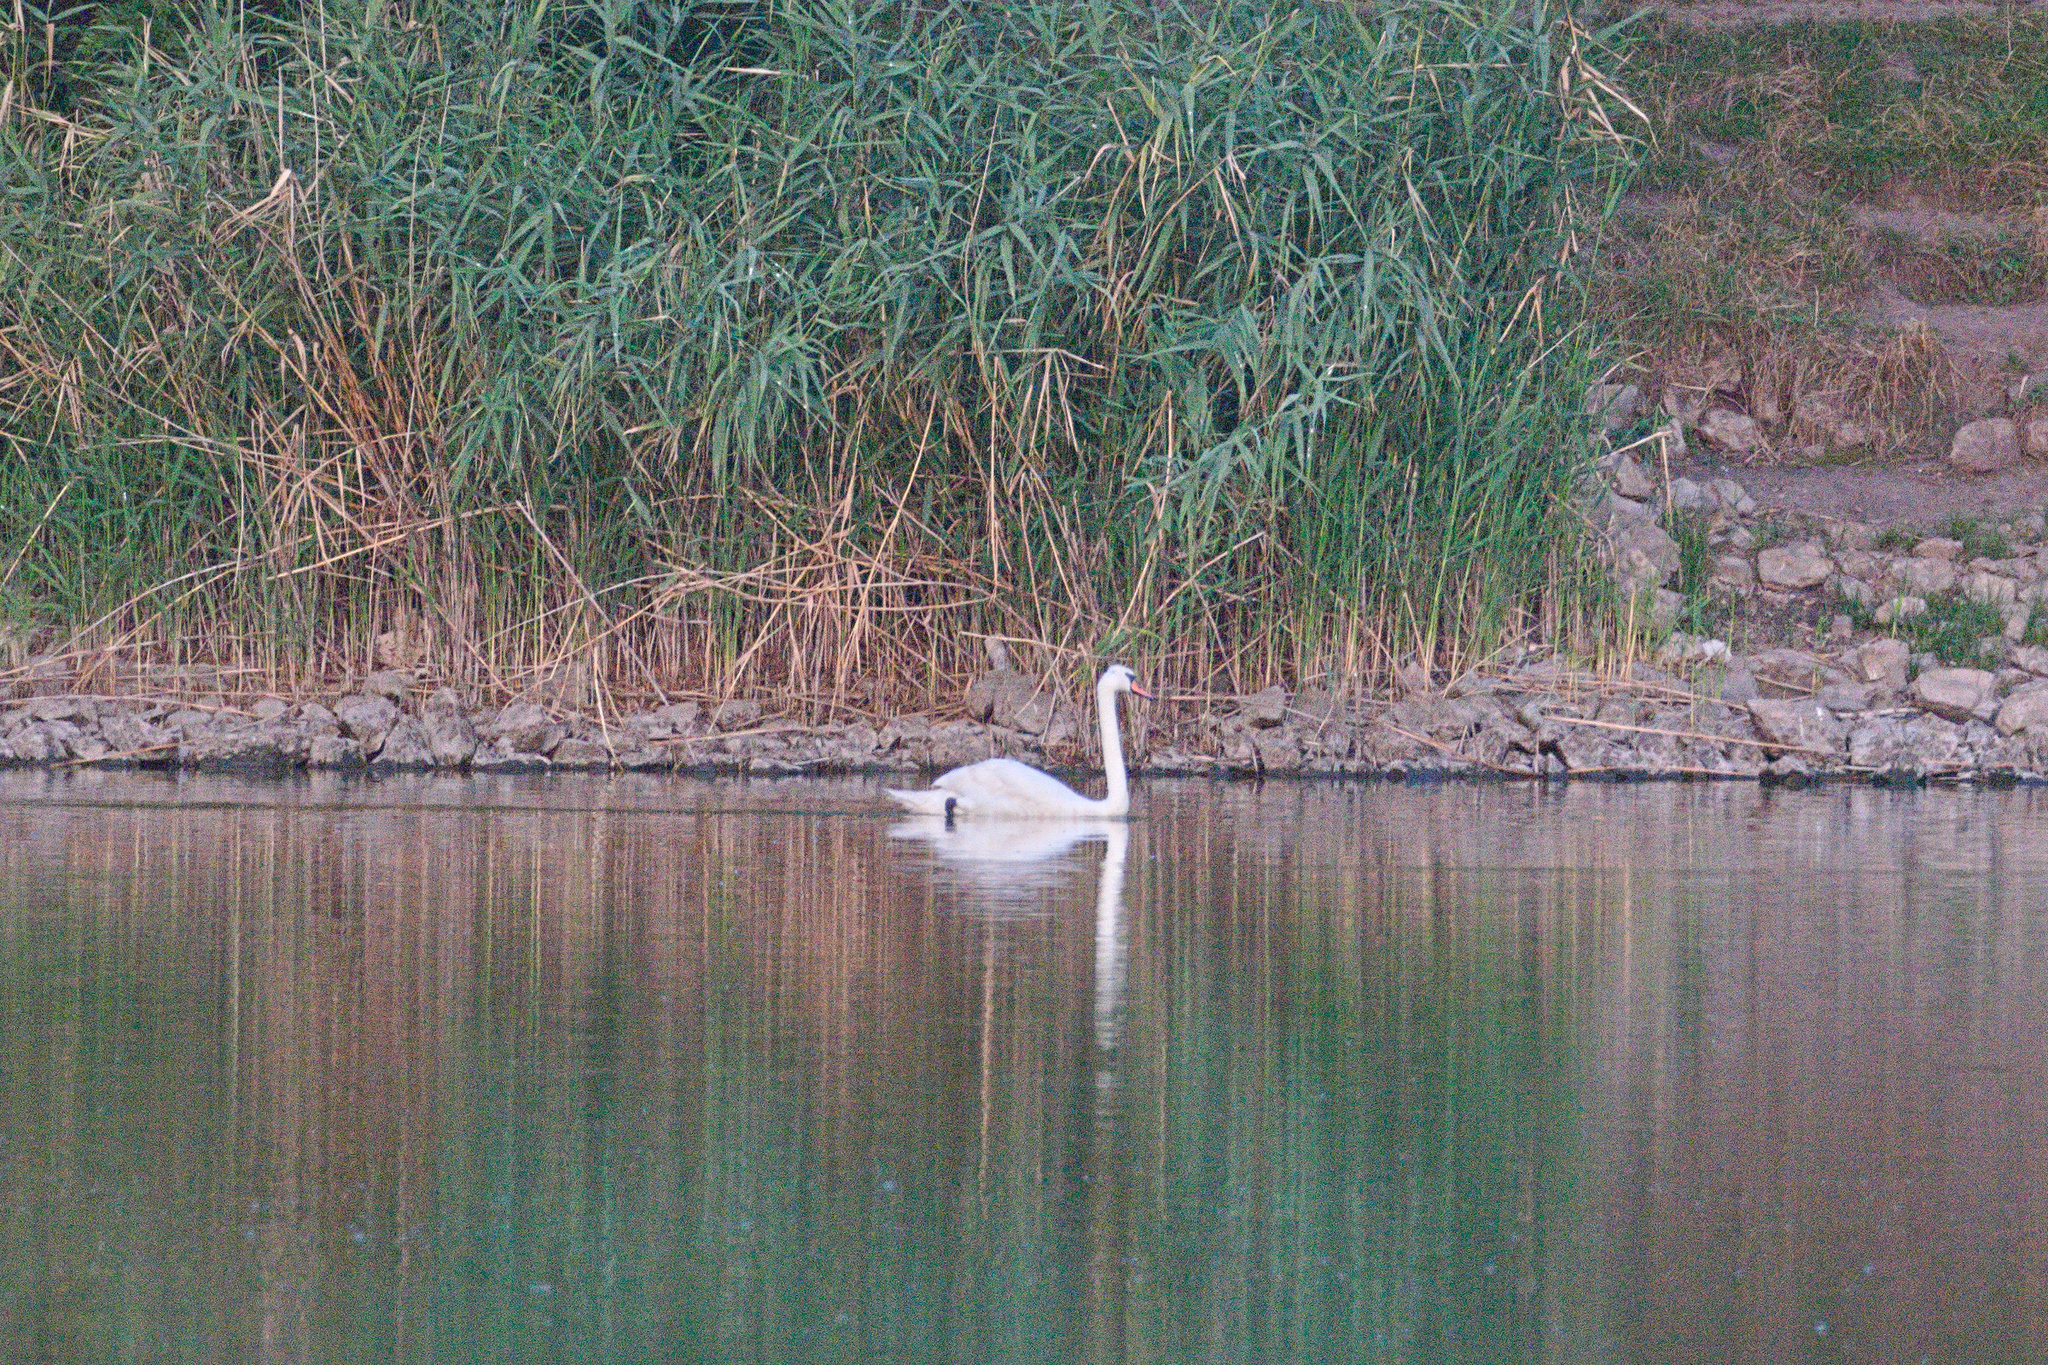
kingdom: Animalia
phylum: Chordata
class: Aves
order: Anseriformes
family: Anatidae
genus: Cygnus
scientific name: Cygnus olor
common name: Mute swan
